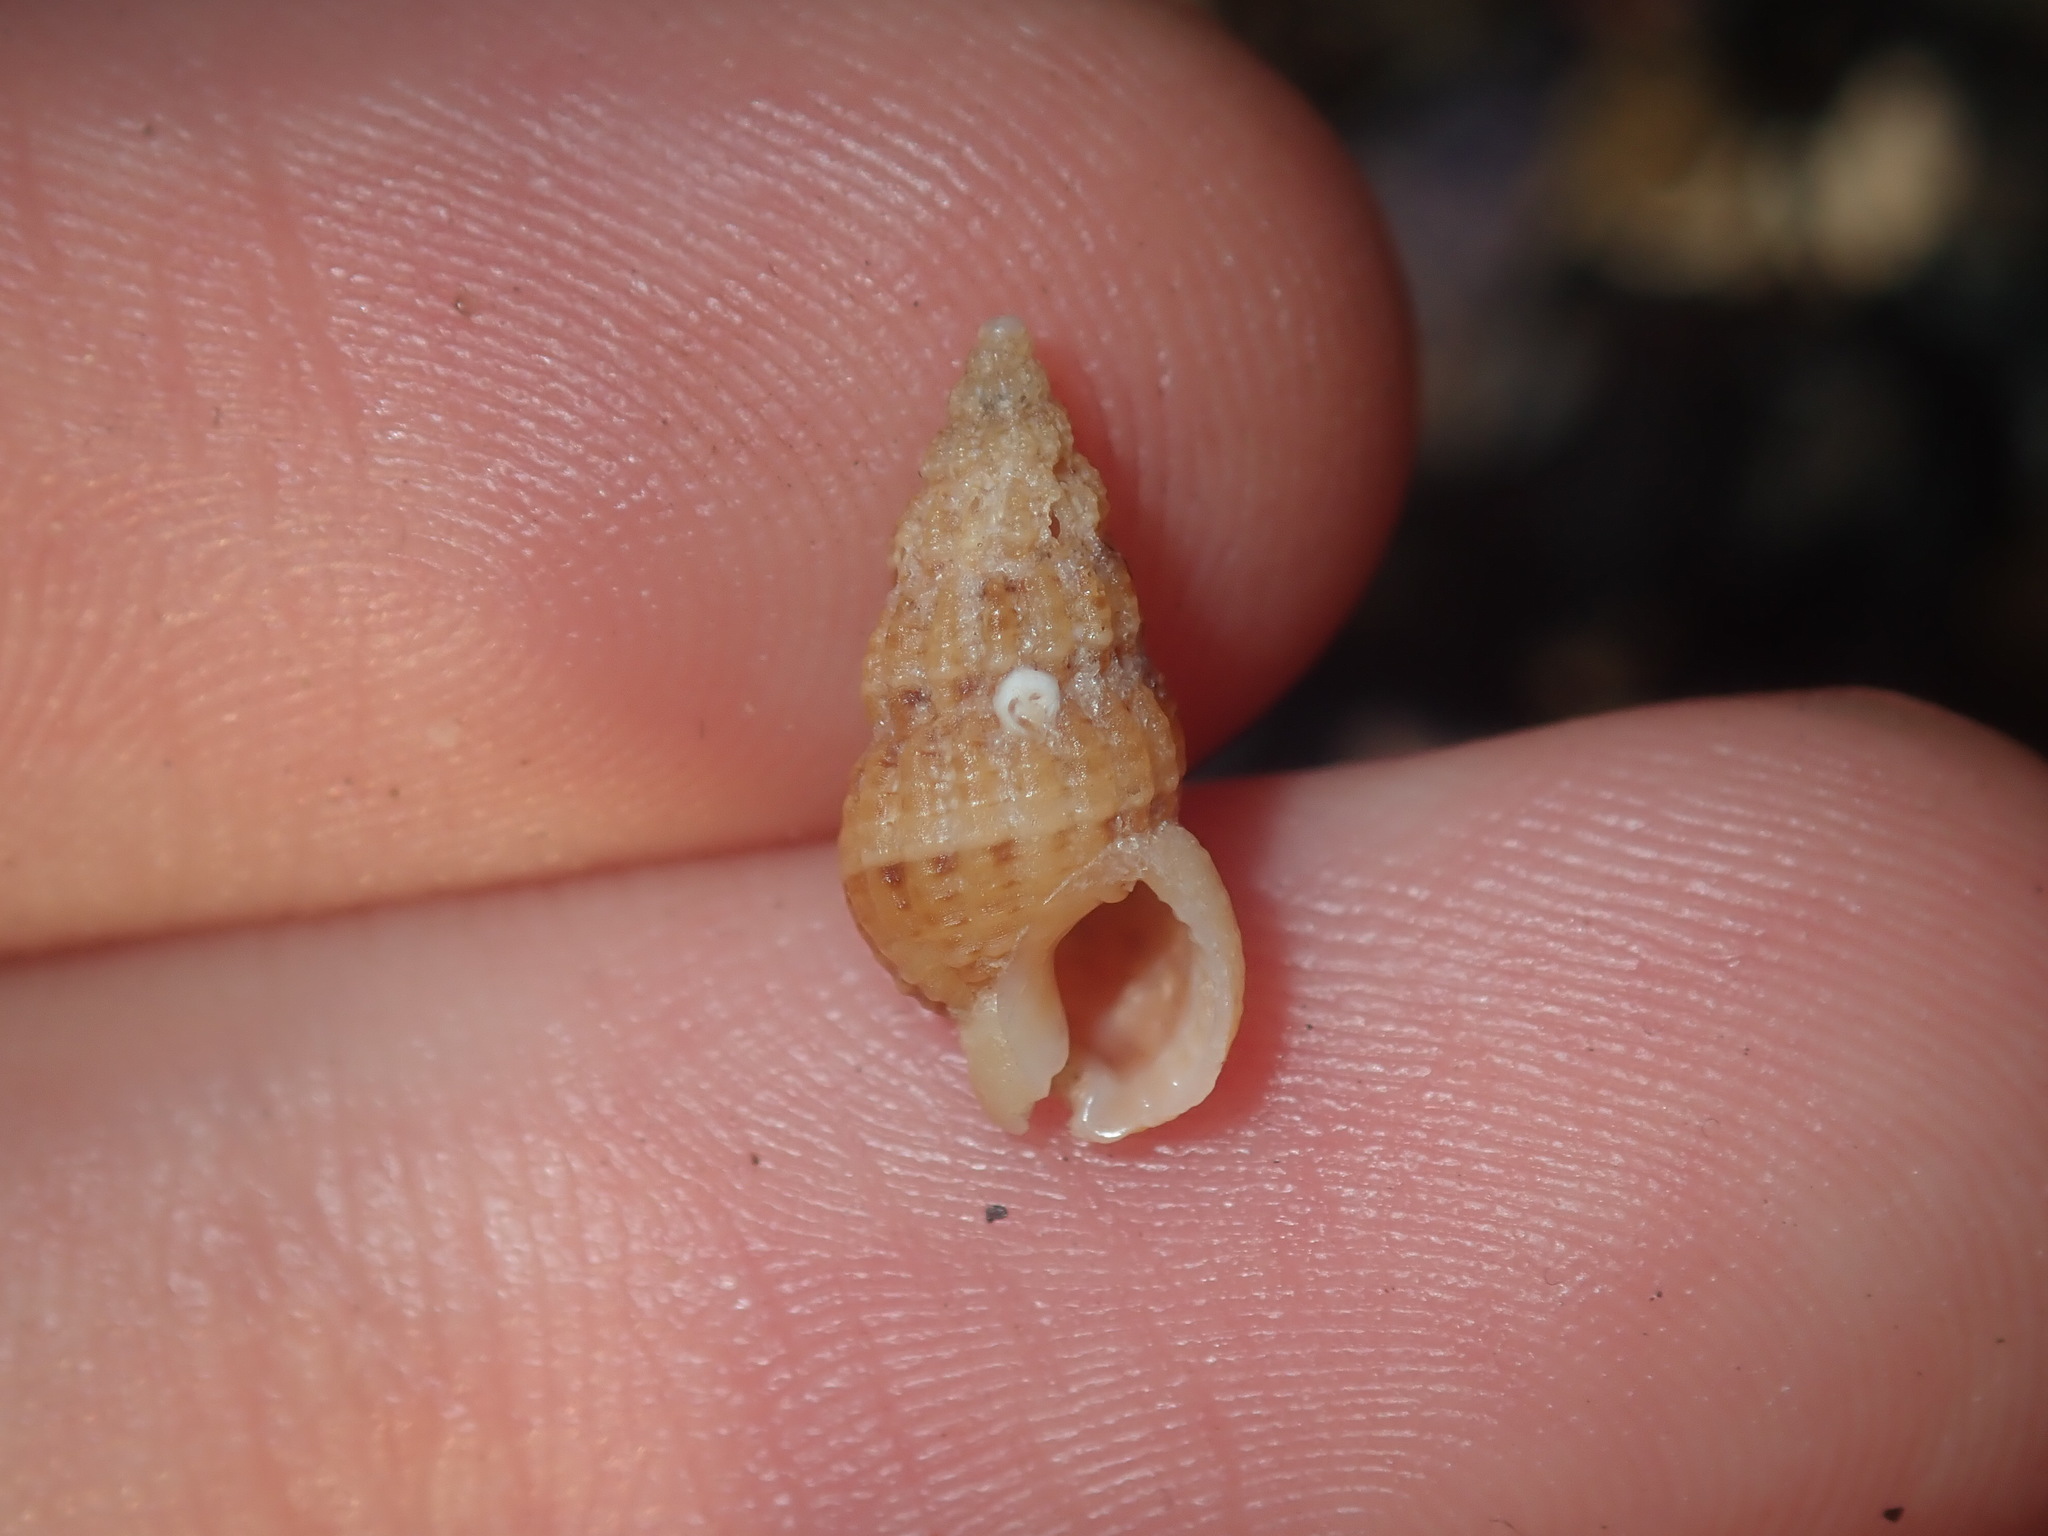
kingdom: Animalia
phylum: Mollusca
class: Gastropoda
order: Neogastropoda
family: Nassariidae
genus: Reticunassa
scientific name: Reticunassa paupera
